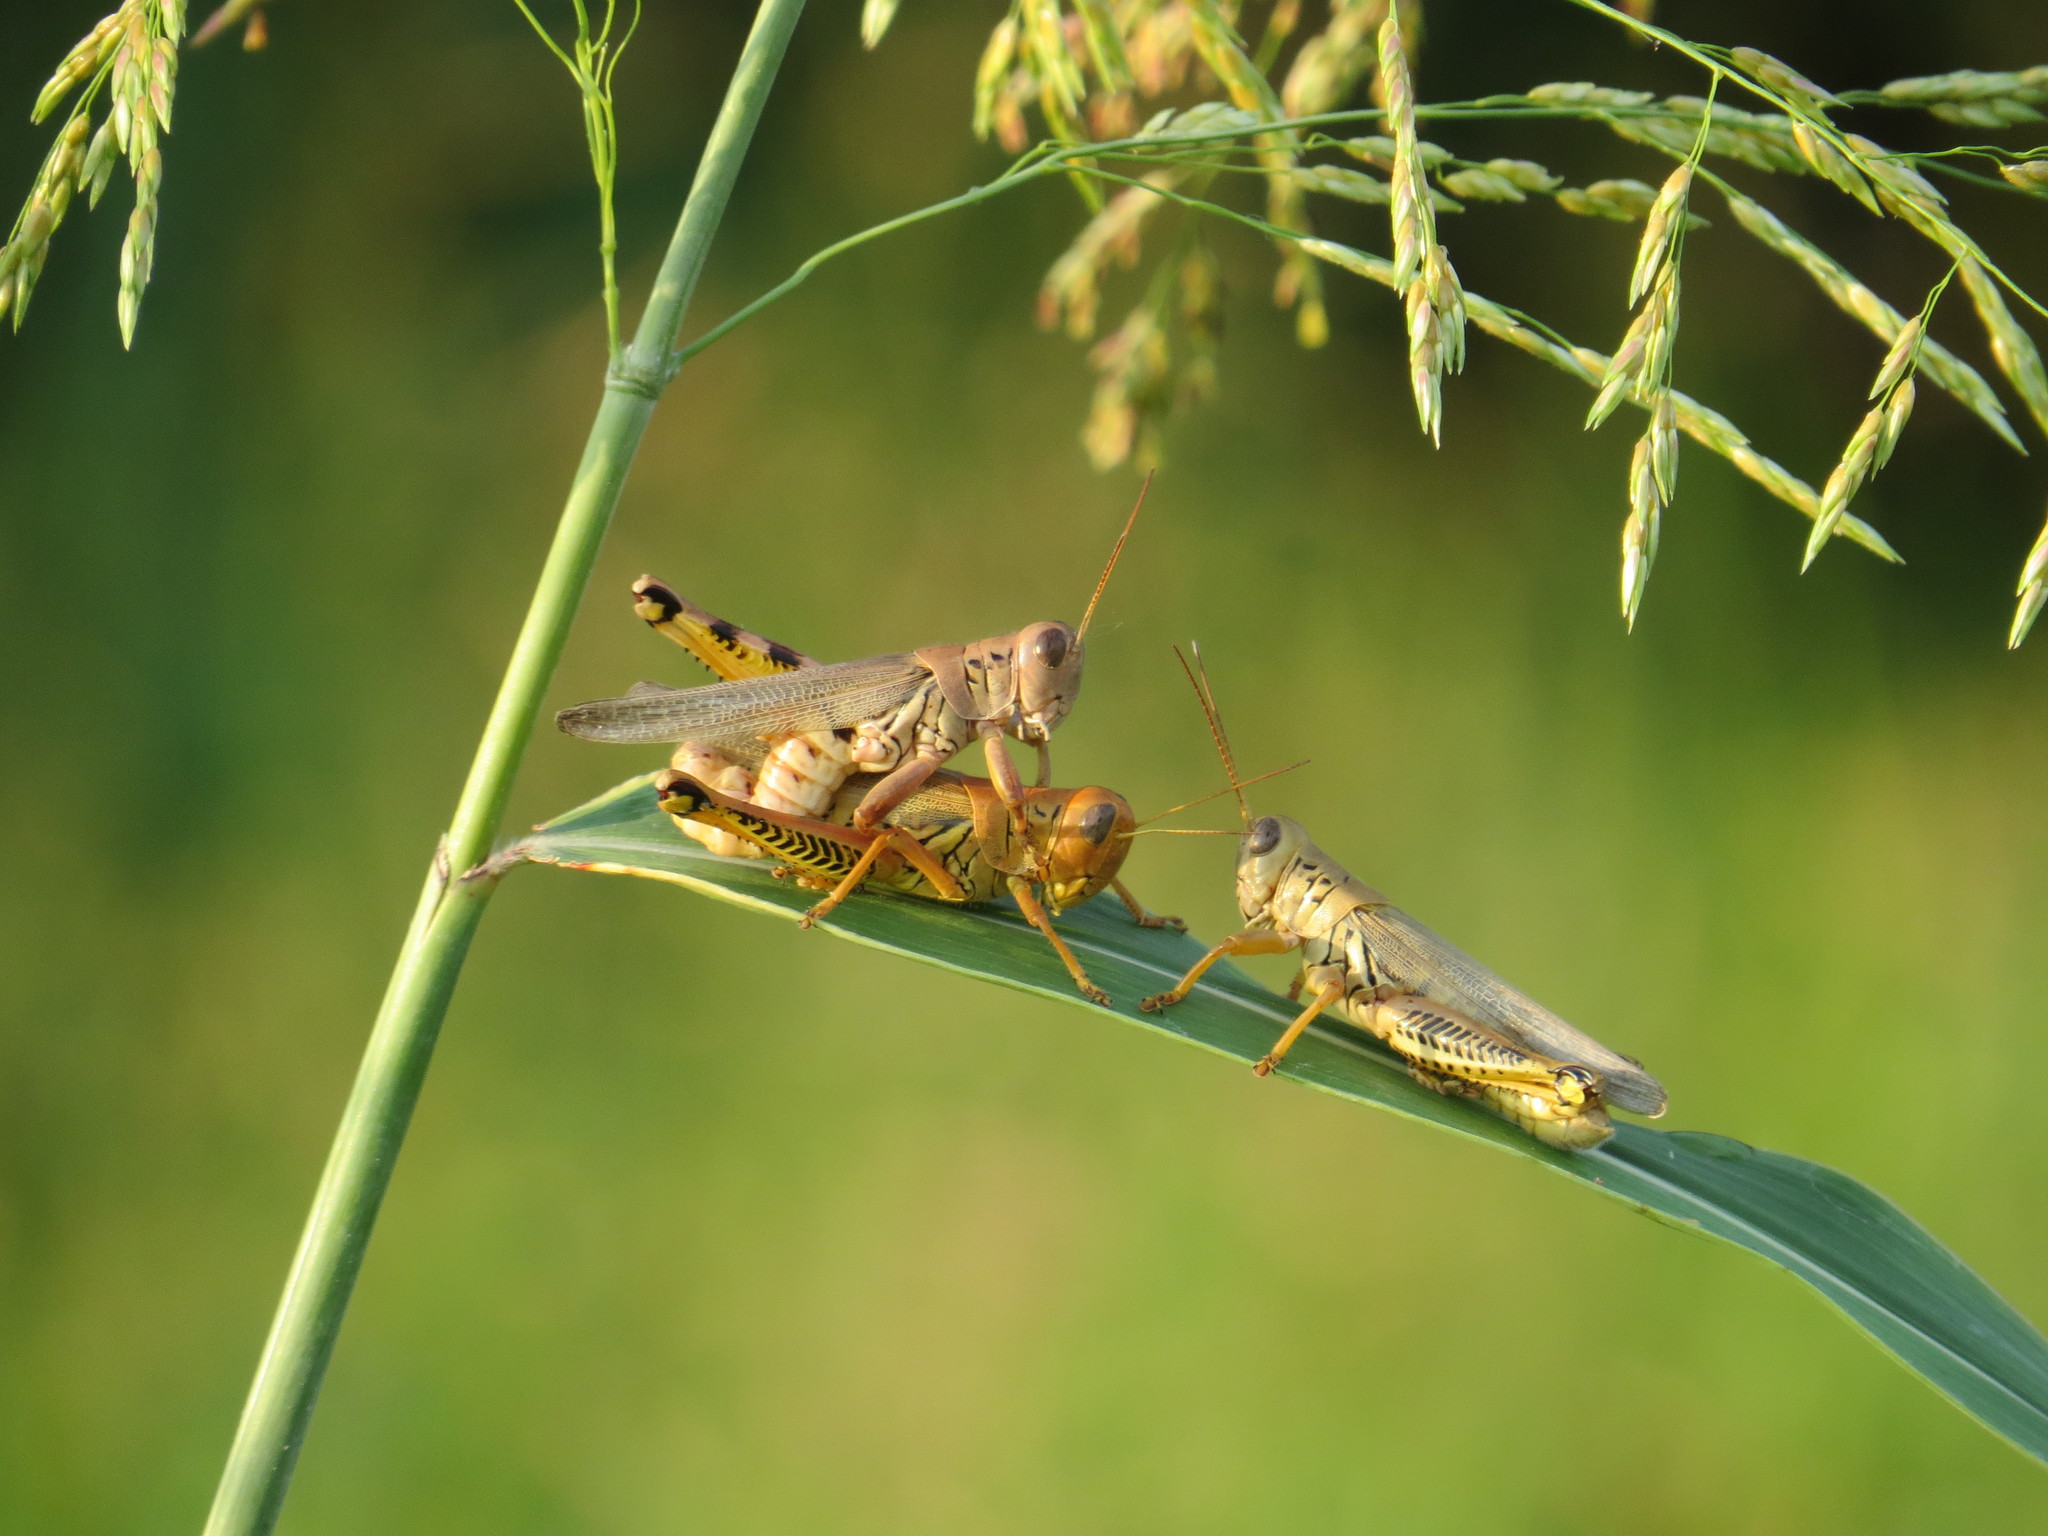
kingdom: Animalia
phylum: Arthropoda
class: Insecta
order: Orthoptera
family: Acrididae
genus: Melanoplus
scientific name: Melanoplus differentialis
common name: Differential grasshopper
